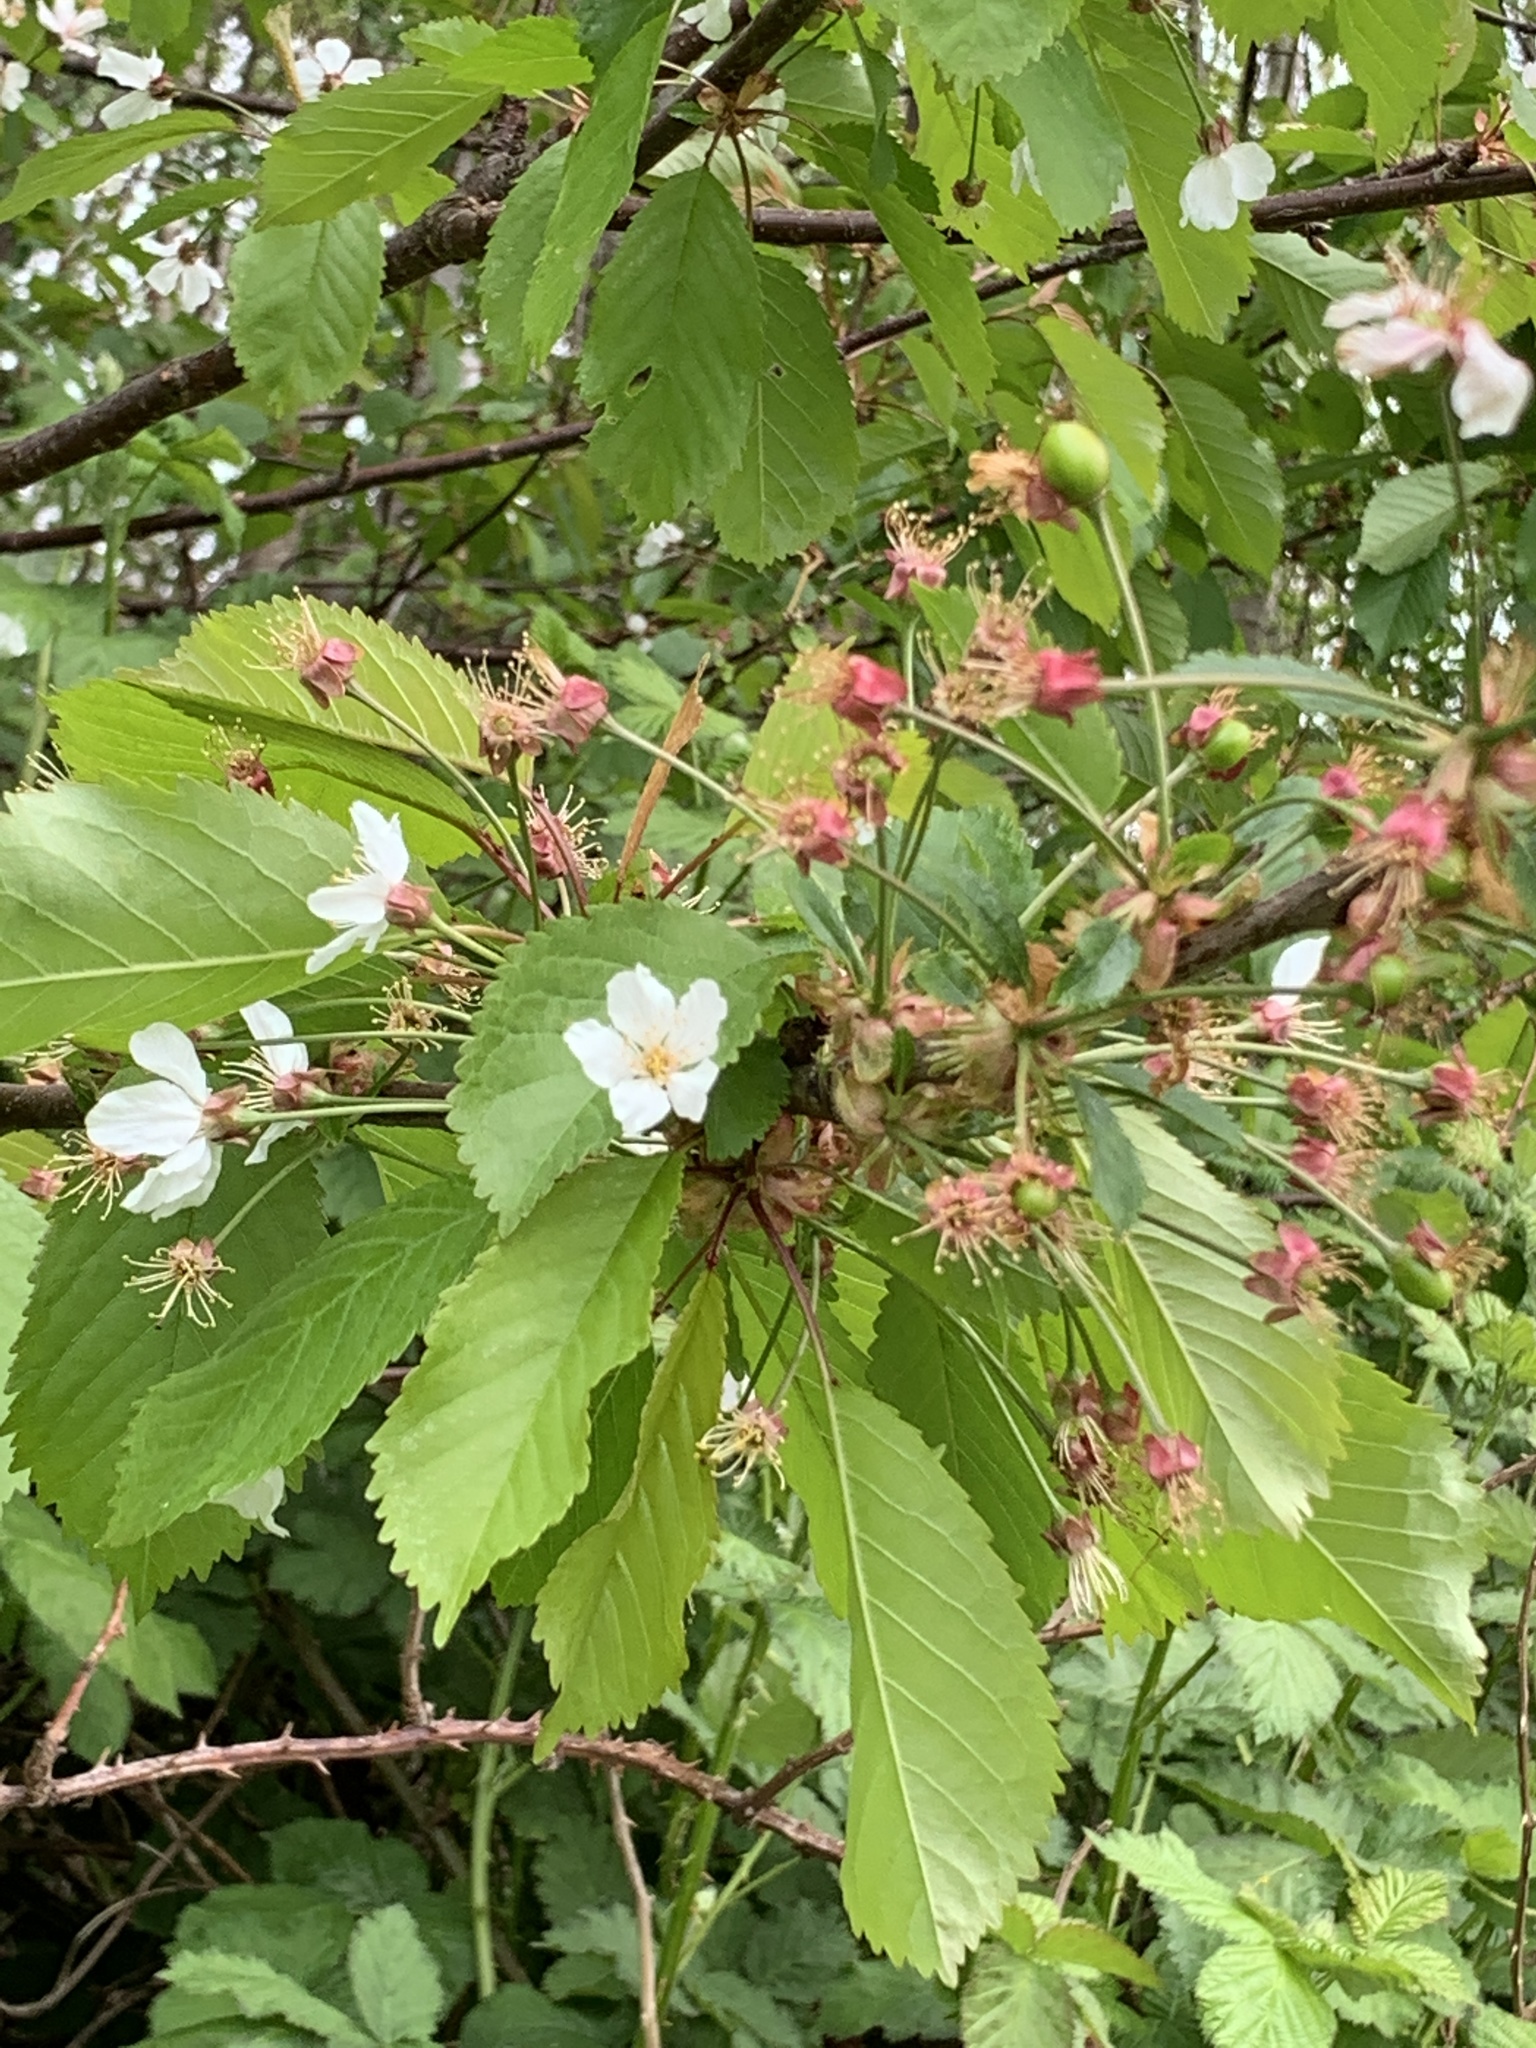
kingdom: Plantae
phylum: Tracheophyta
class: Magnoliopsida
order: Rosales
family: Rosaceae
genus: Prunus
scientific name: Prunus avium
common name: Sweet cherry
